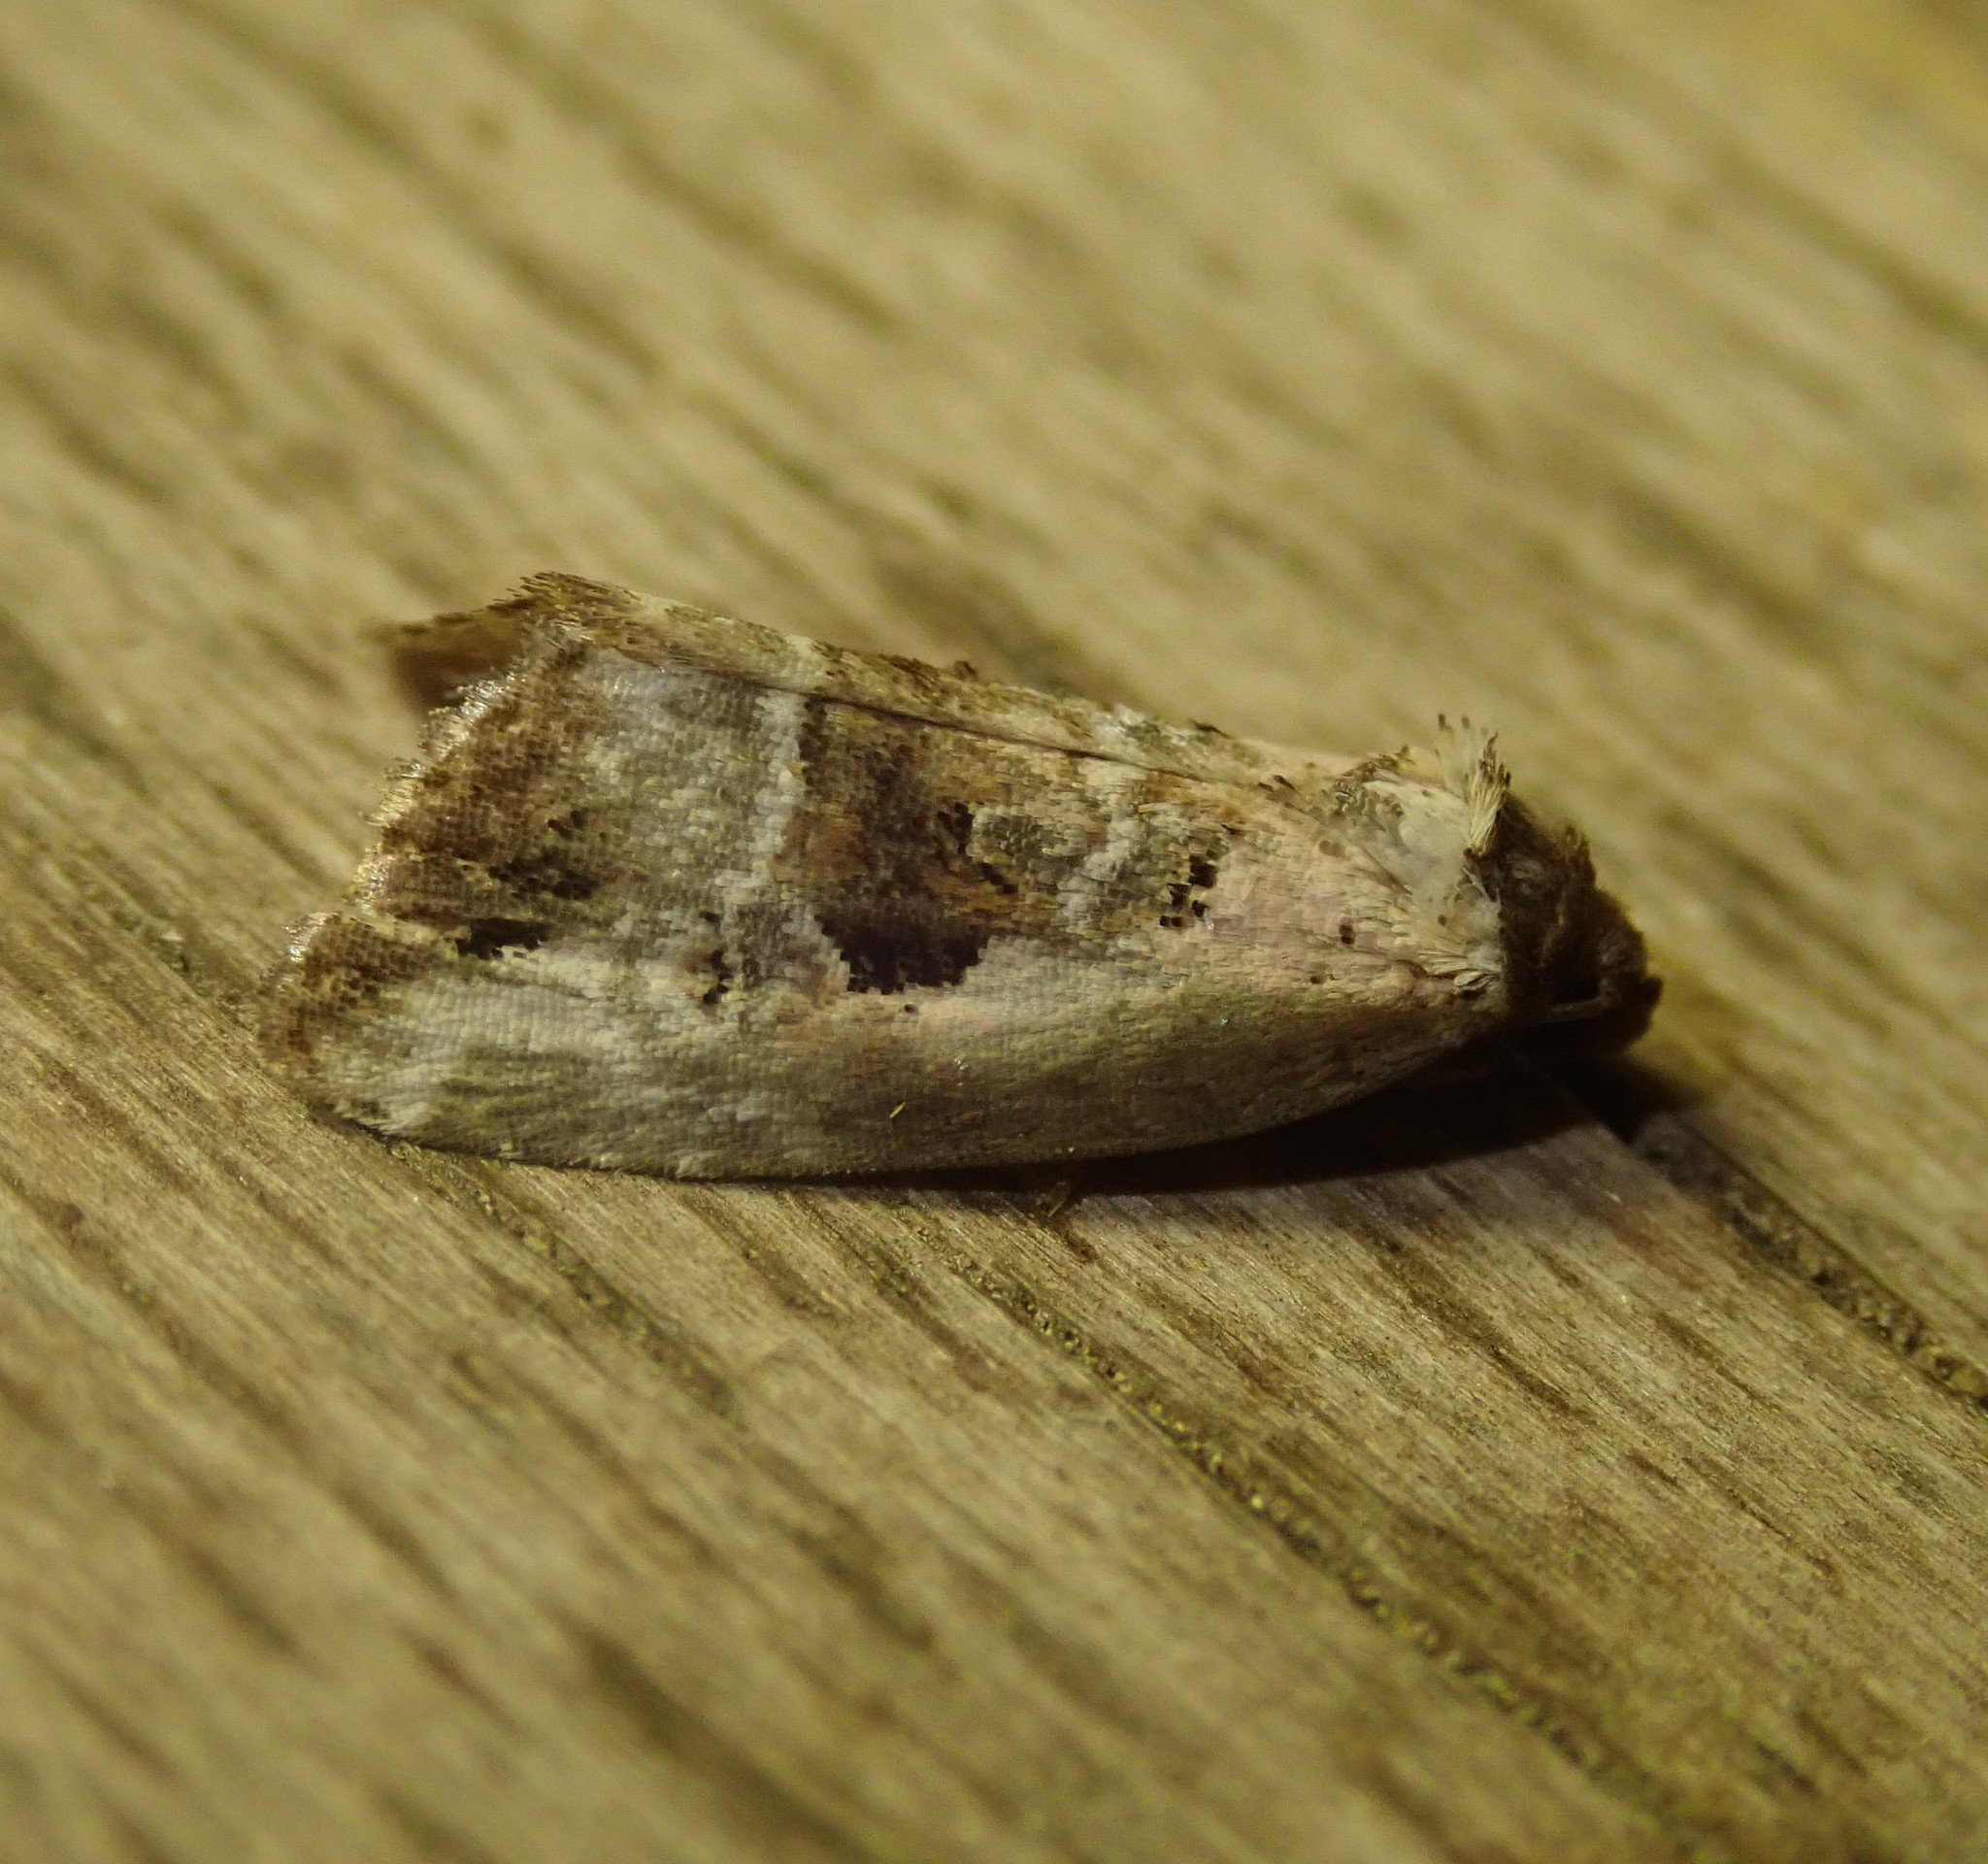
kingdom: Animalia
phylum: Arthropoda
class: Insecta
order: Lepidoptera
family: Noctuidae
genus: Elaphria
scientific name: Elaphria venustula
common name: Rosy marbled
